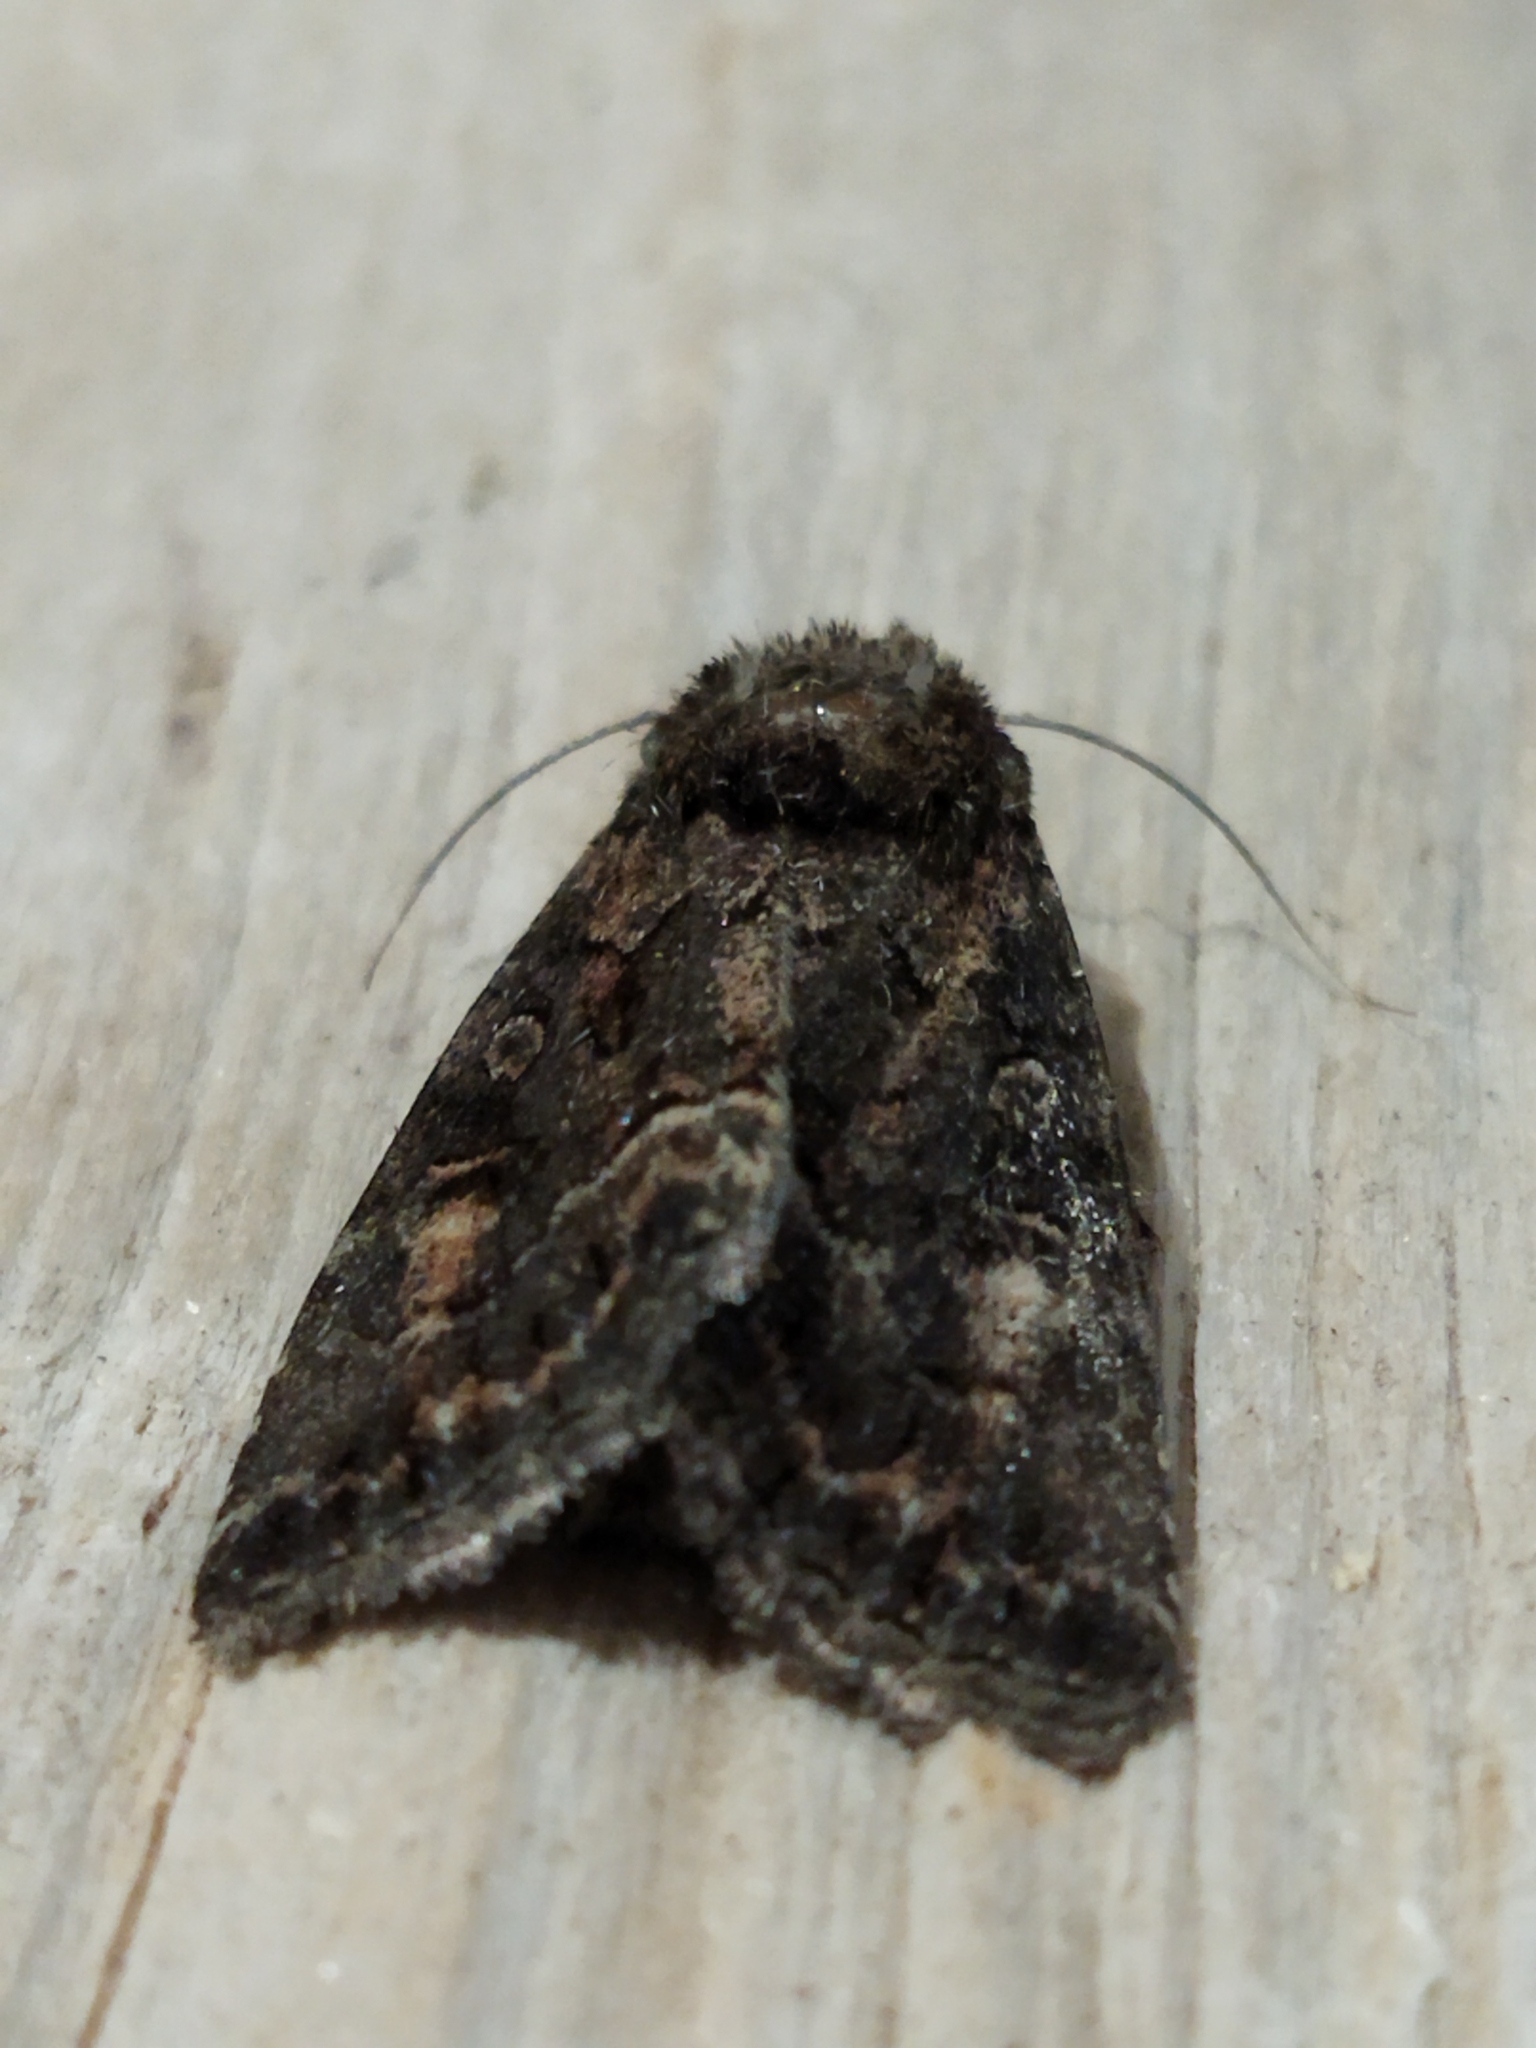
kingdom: Animalia
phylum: Arthropoda
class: Insecta
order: Lepidoptera
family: Noctuidae
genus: Thalpophila
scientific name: Thalpophila matura
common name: Straw underwing
